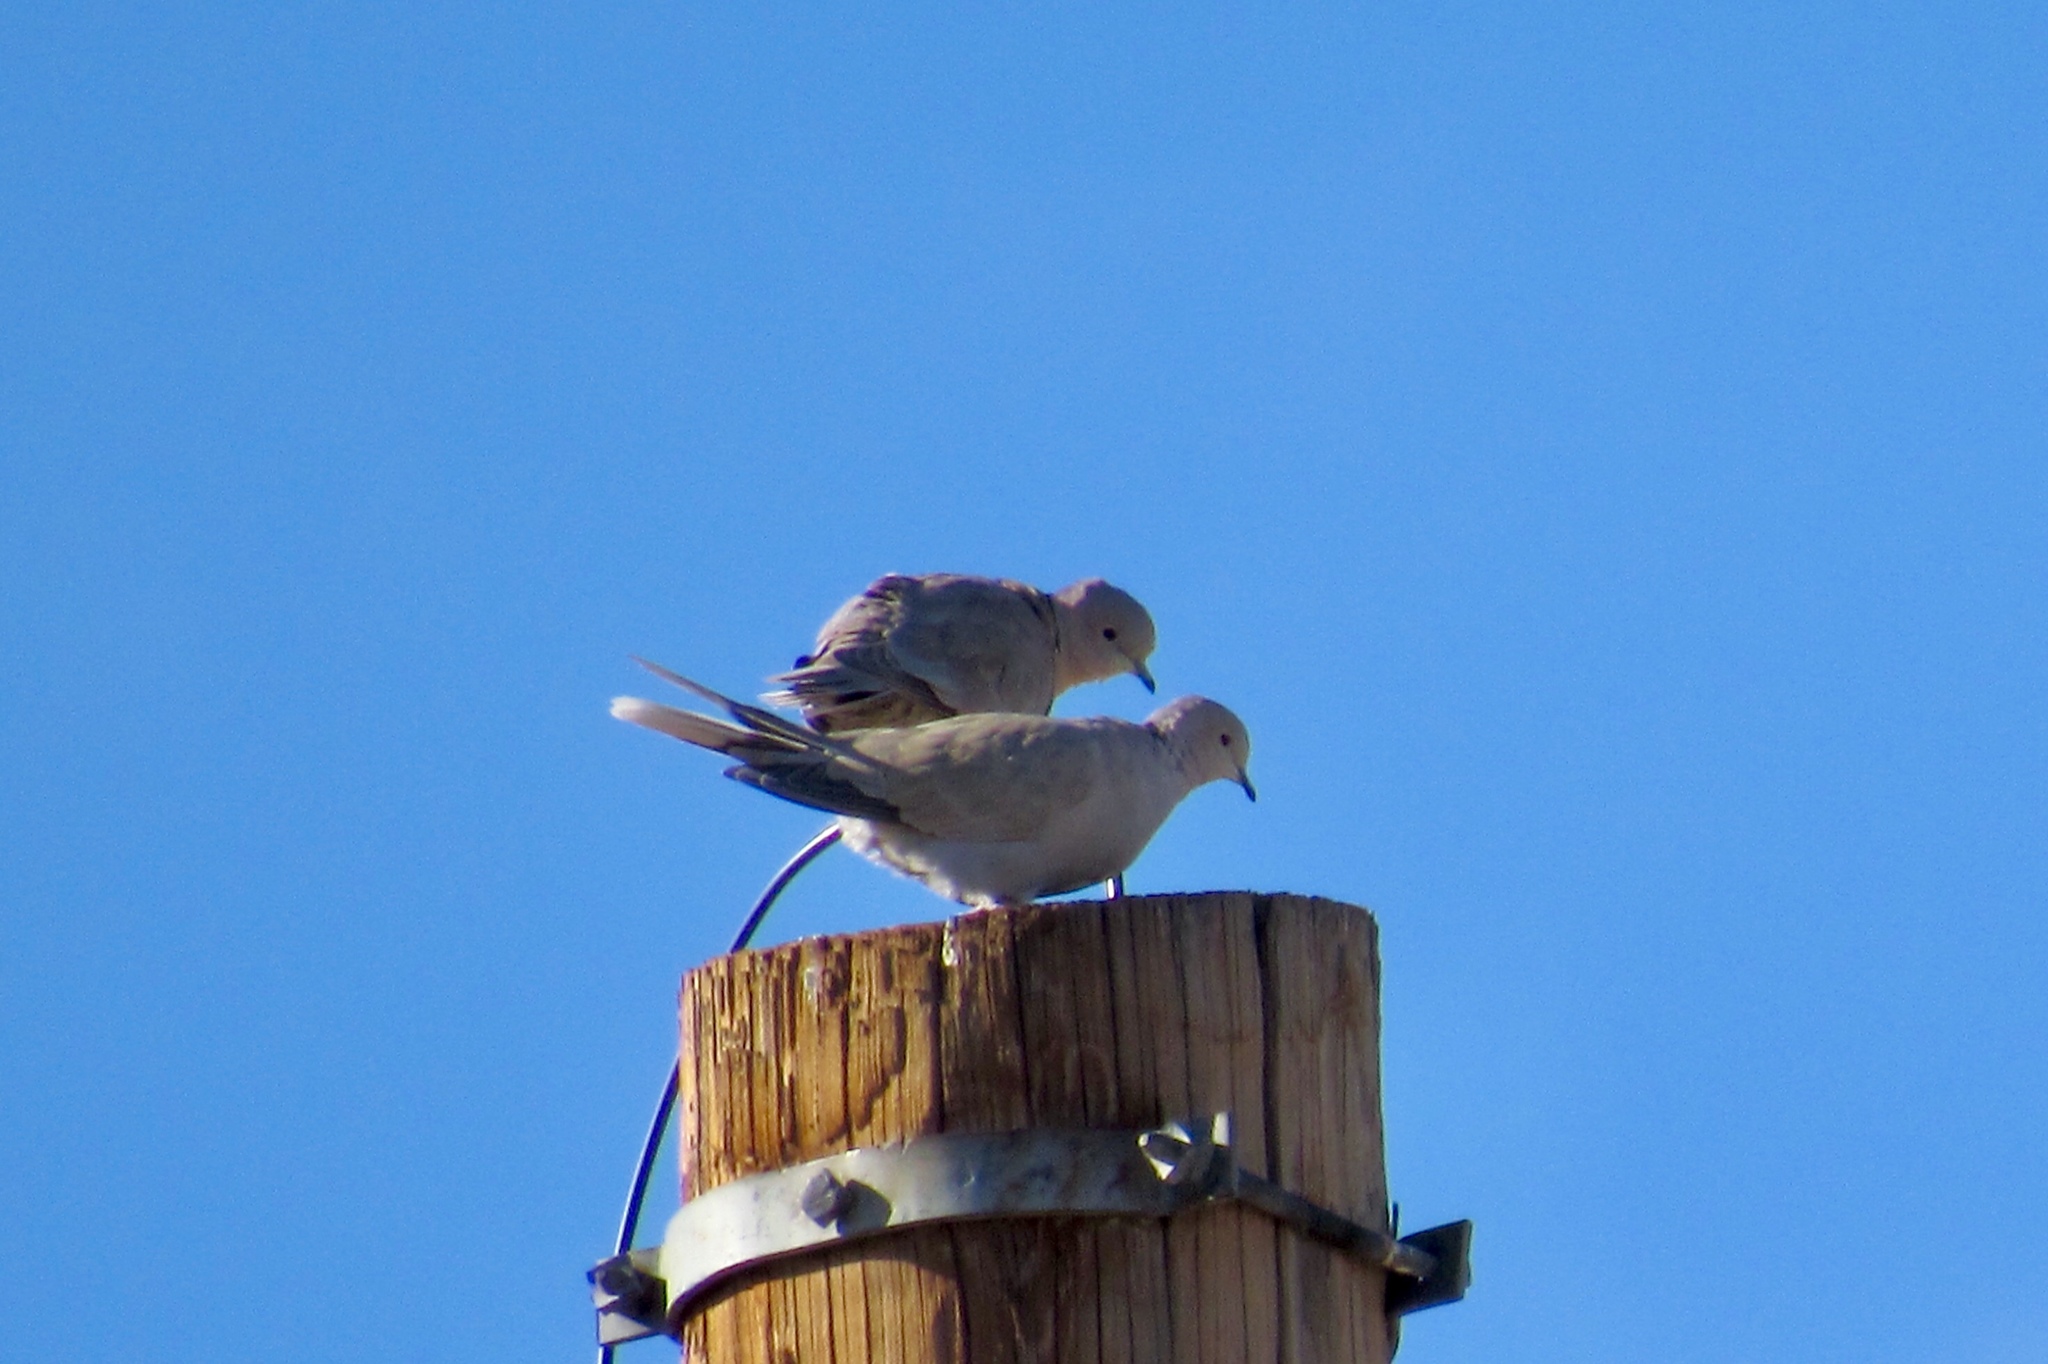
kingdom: Animalia
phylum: Chordata
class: Aves
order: Columbiformes
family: Columbidae
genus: Streptopelia
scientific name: Streptopelia decaocto
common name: Eurasian collared dove
